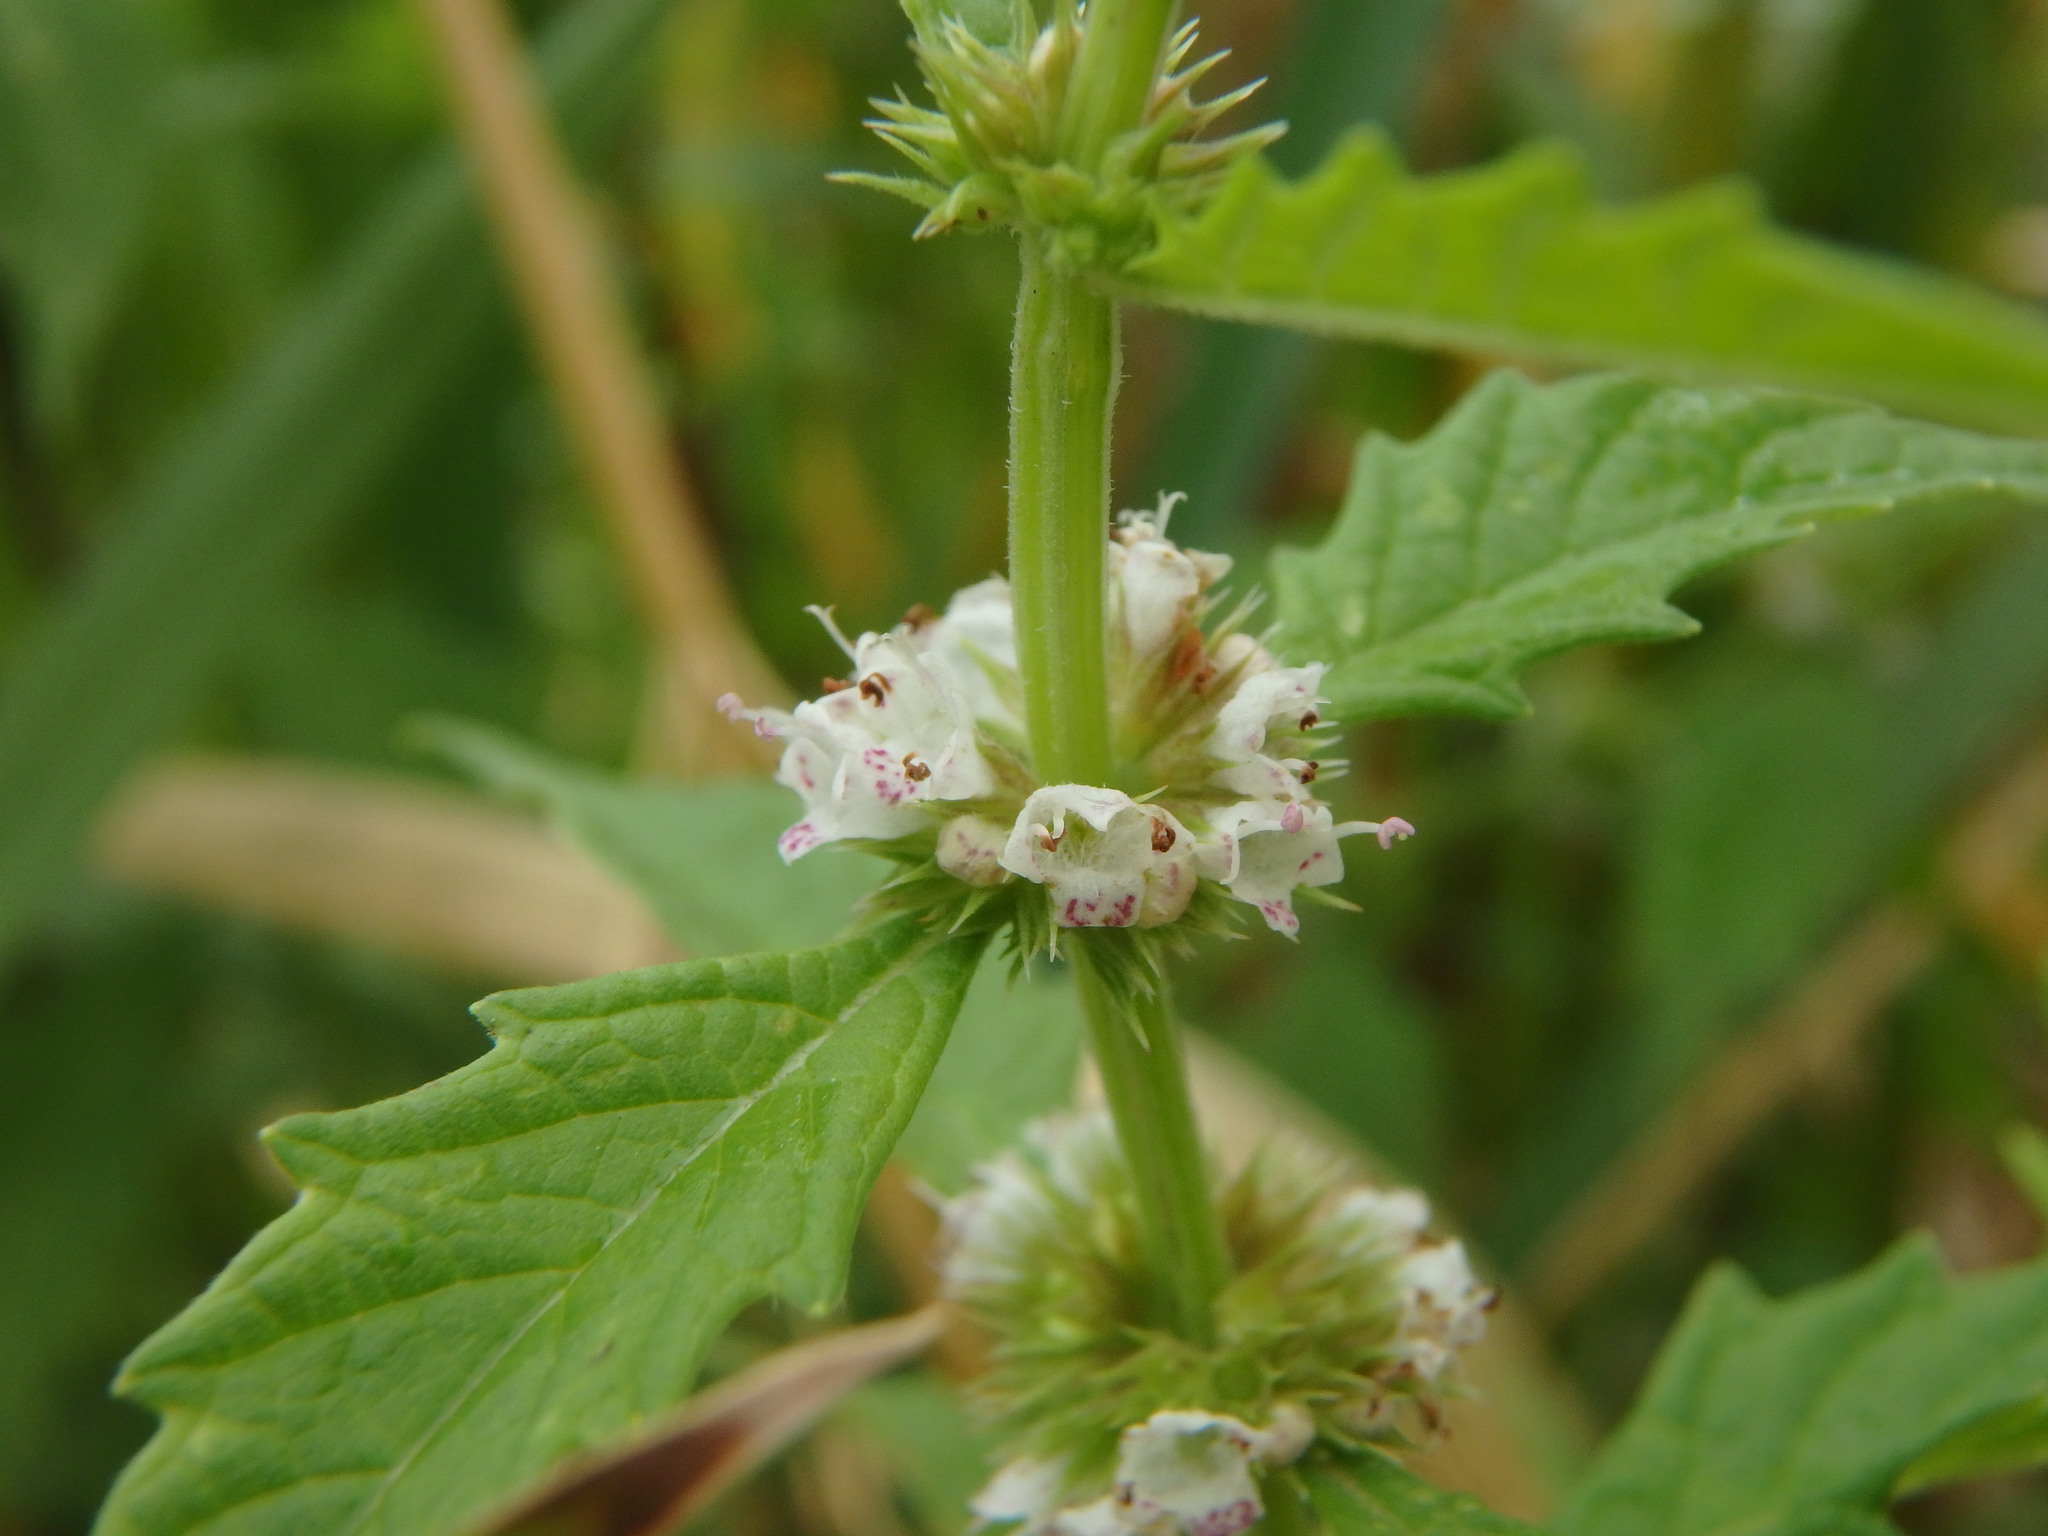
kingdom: Plantae
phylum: Tracheophyta
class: Magnoliopsida
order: Lamiales
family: Lamiaceae
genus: Lycopus
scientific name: Lycopus europaeus
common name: European bugleweed
